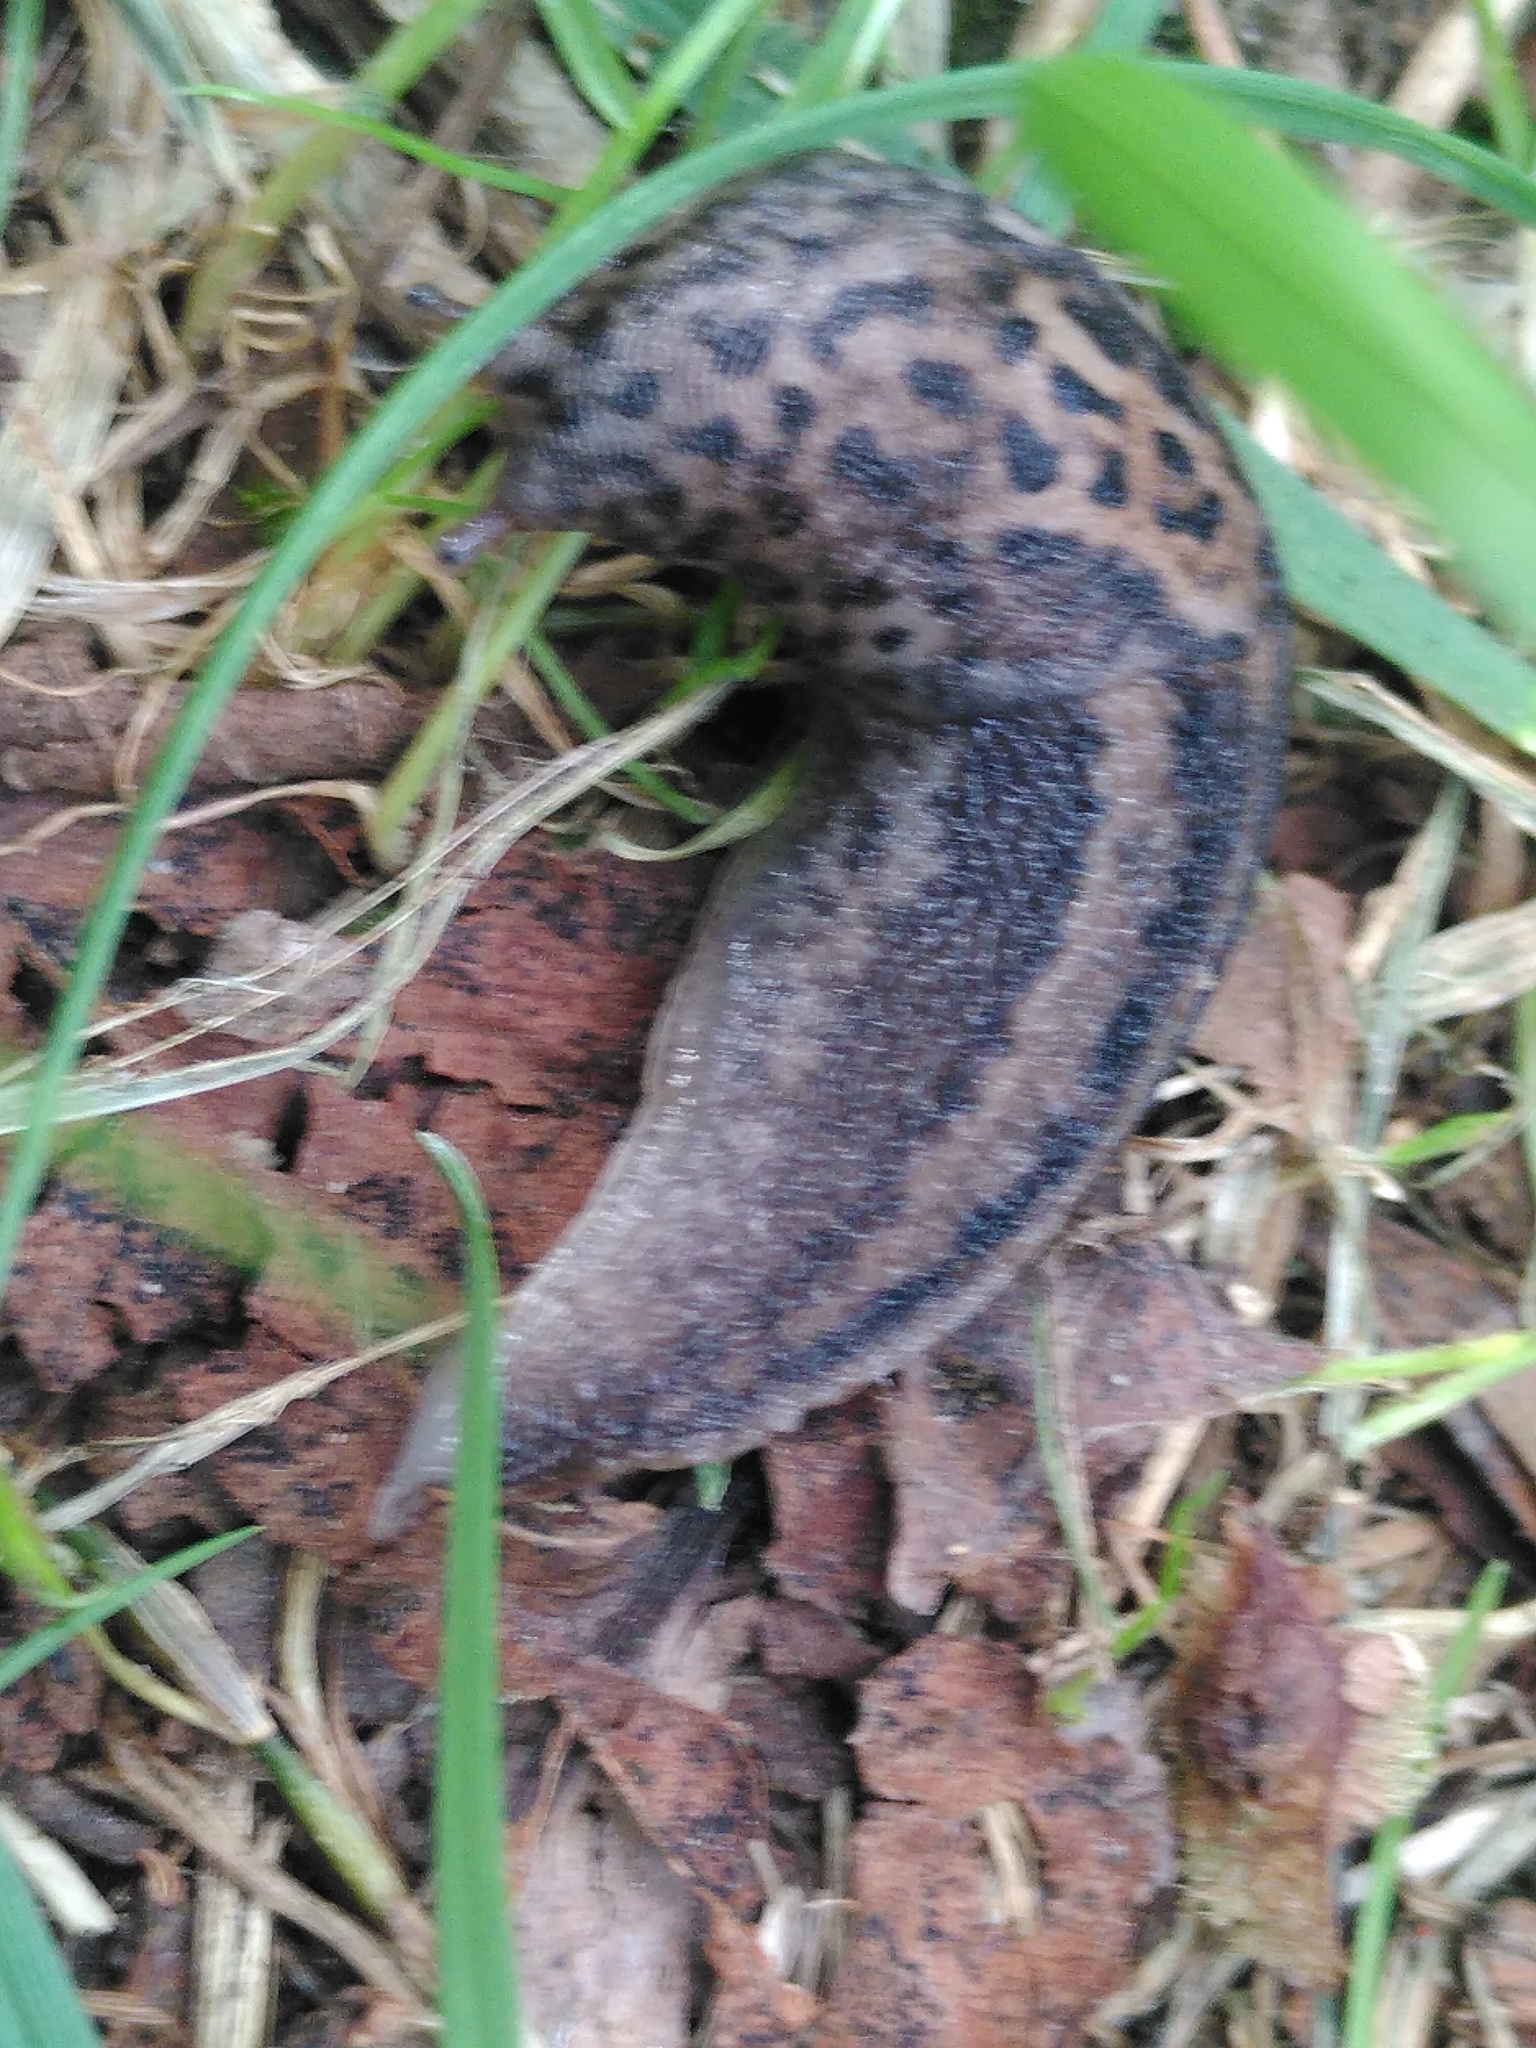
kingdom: Animalia
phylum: Mollusca
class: Gastropoda
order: Stylommatophora
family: Limacidae
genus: Limax
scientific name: Limax maximus
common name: Great grey slug
